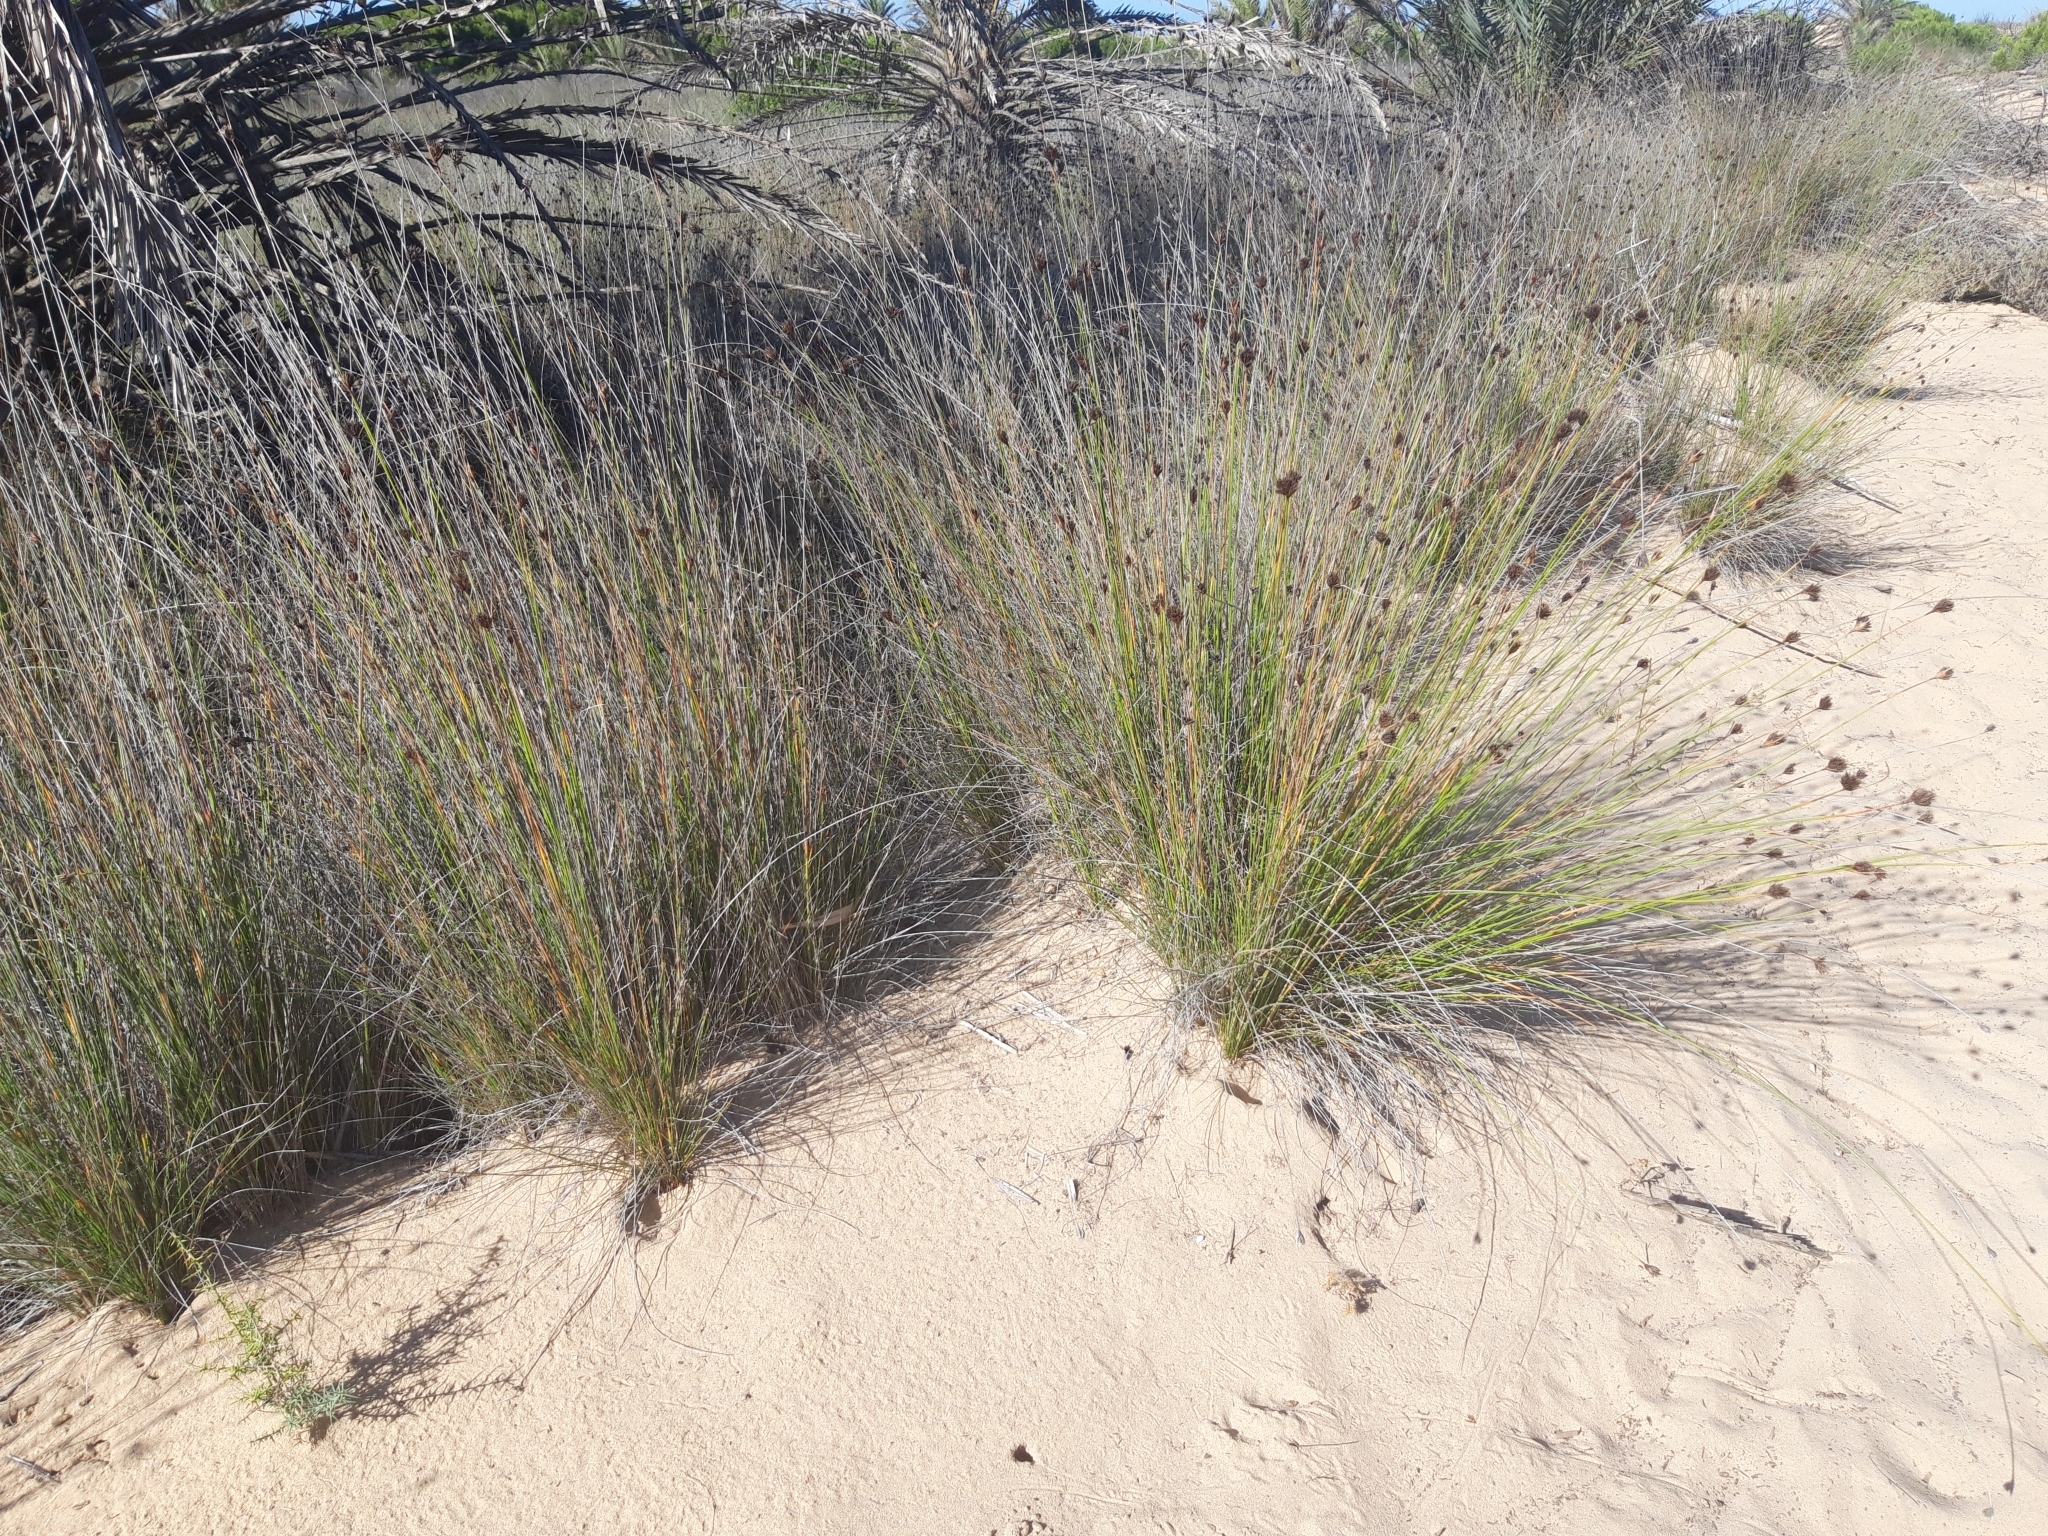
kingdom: Plantae
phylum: Tracheophyta
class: Liliopsida
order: Poales
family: Cyperaceae
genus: Schoenus
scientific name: Schoenus nigricans
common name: Black bog-rush
